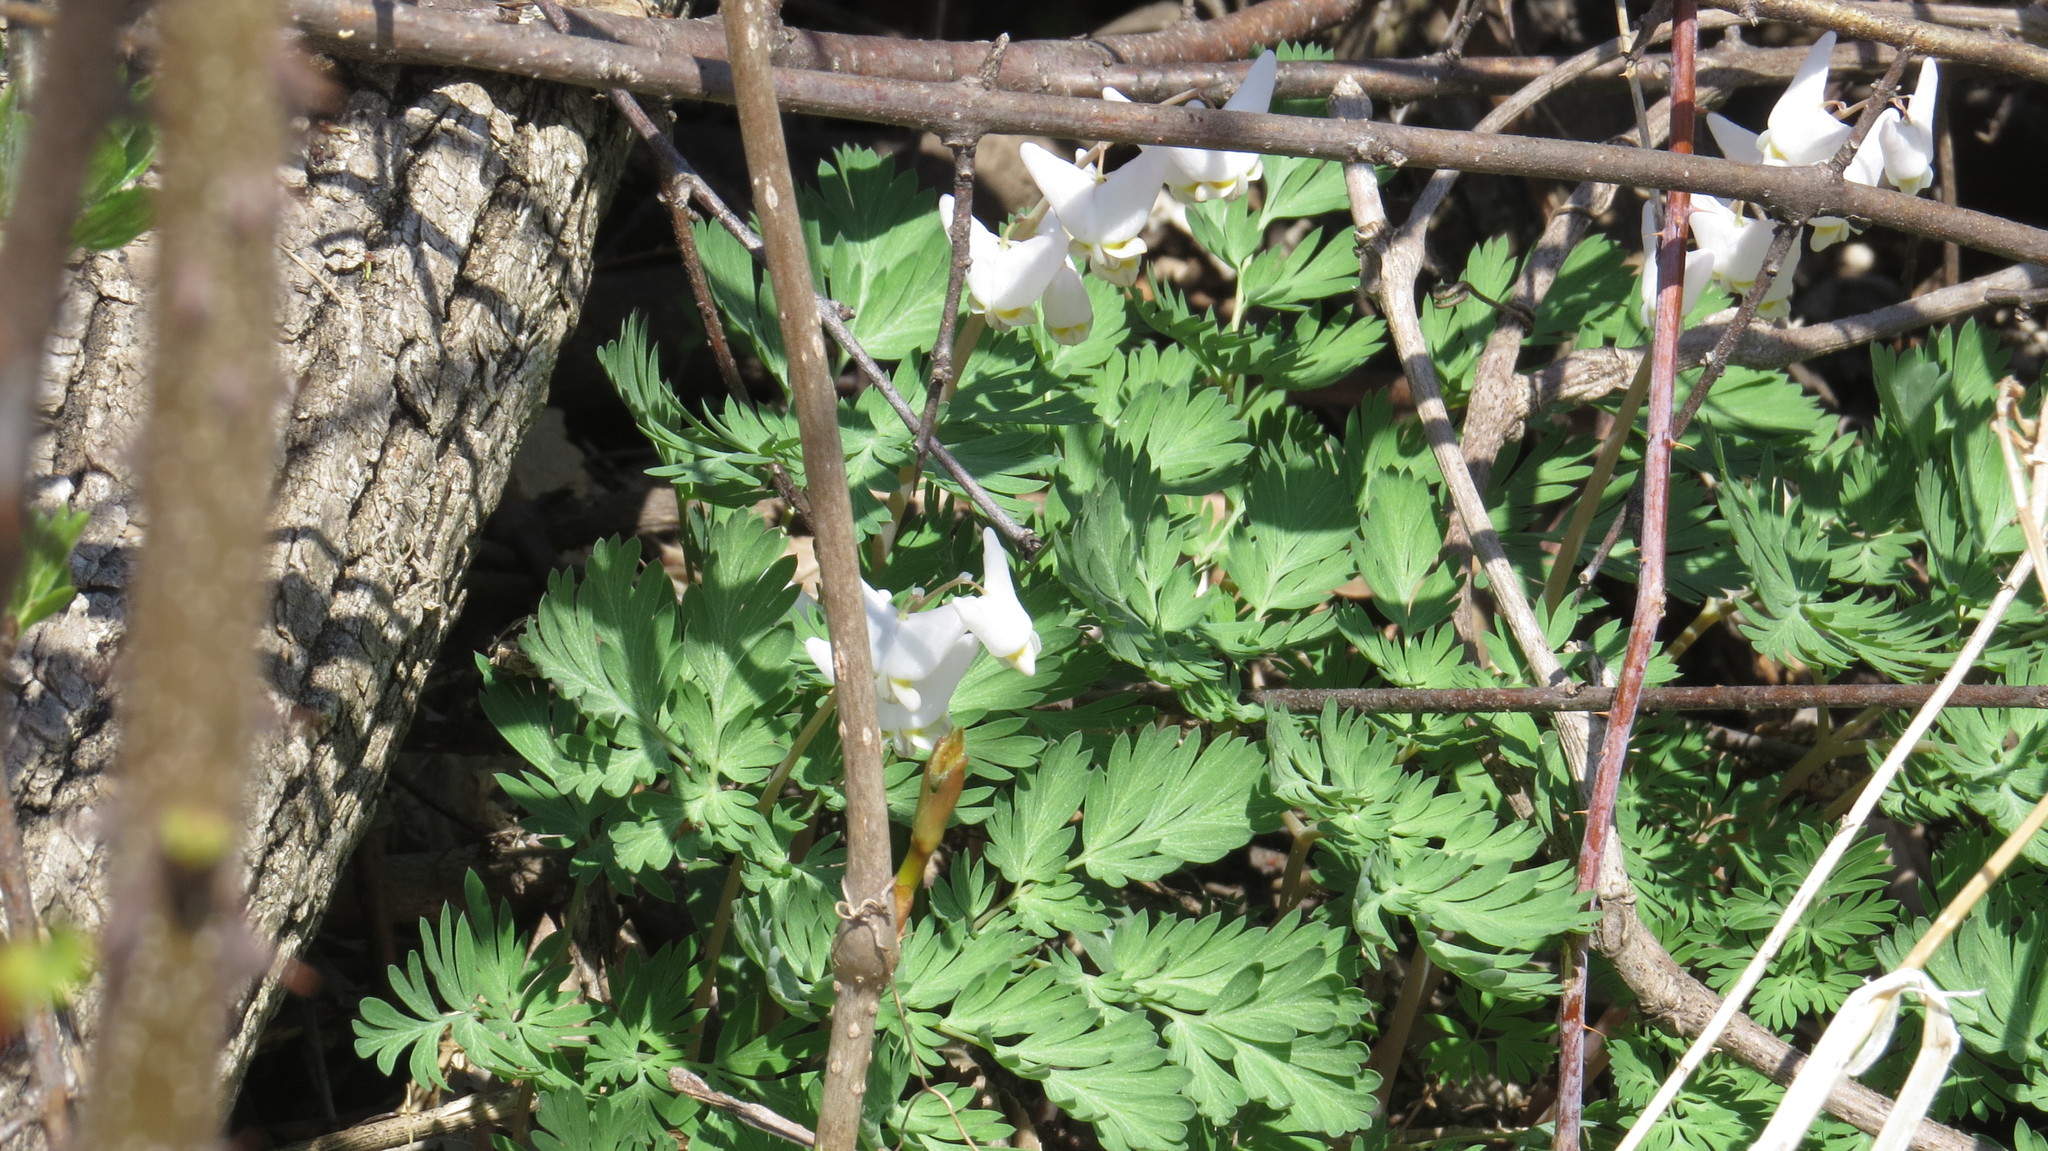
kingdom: Plantae
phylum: Tracheophyta
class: Magnoliopsida
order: Ranunculales
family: Papaveraceae
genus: Dicentra
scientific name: Dicentra cucullaria
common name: Dutchman's breeches
